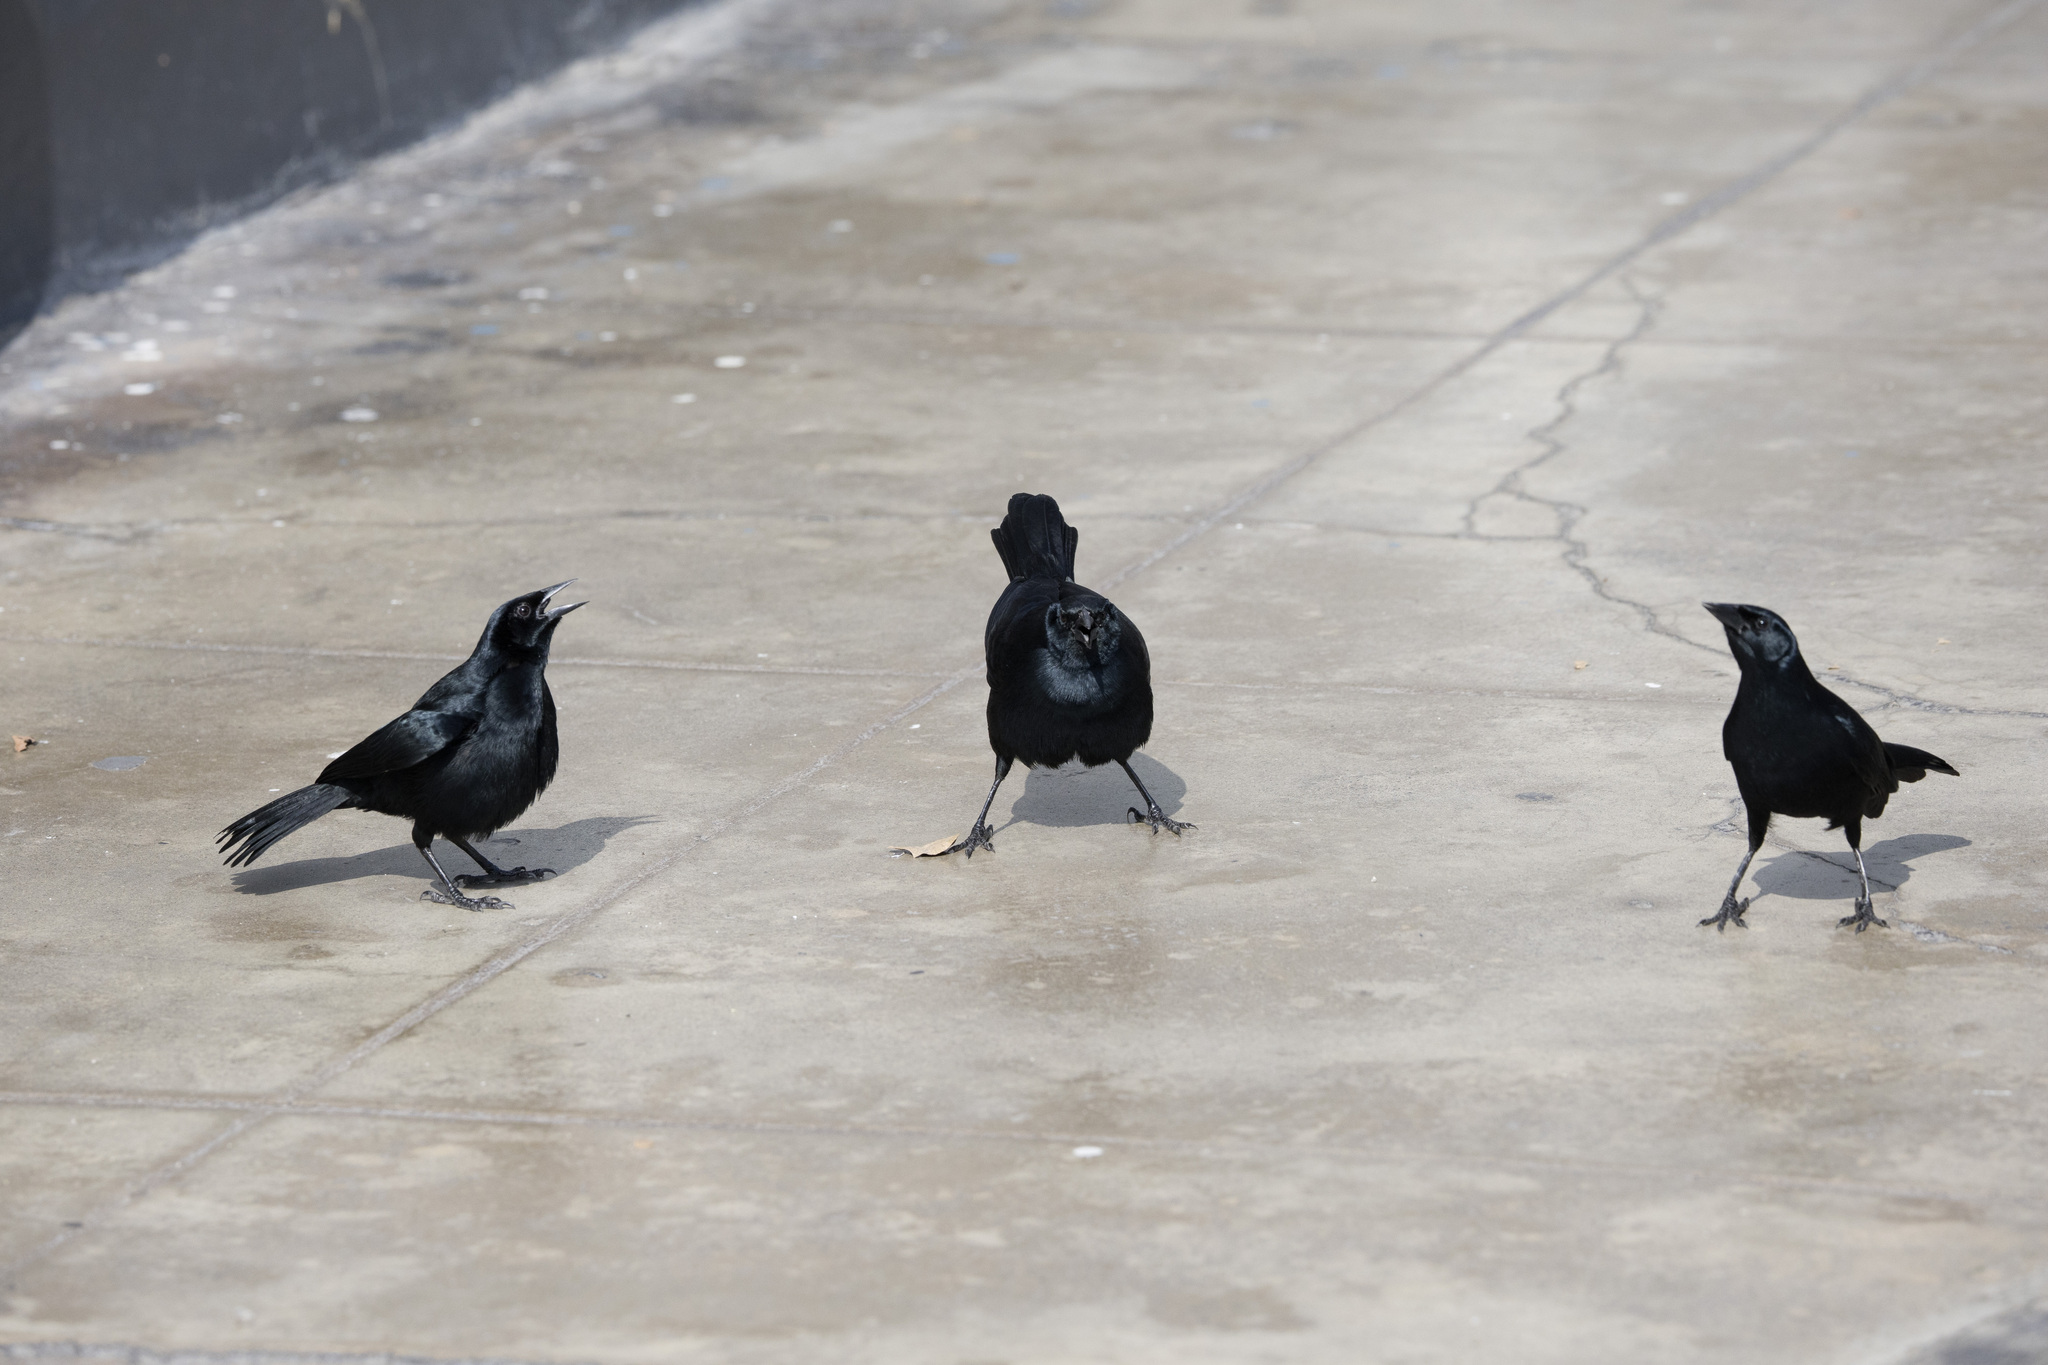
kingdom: Animalia
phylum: Chordata
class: Aves
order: Passeriformes
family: Icteridae
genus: Dives
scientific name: Dives warczewiczi
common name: Scrub blackbird
